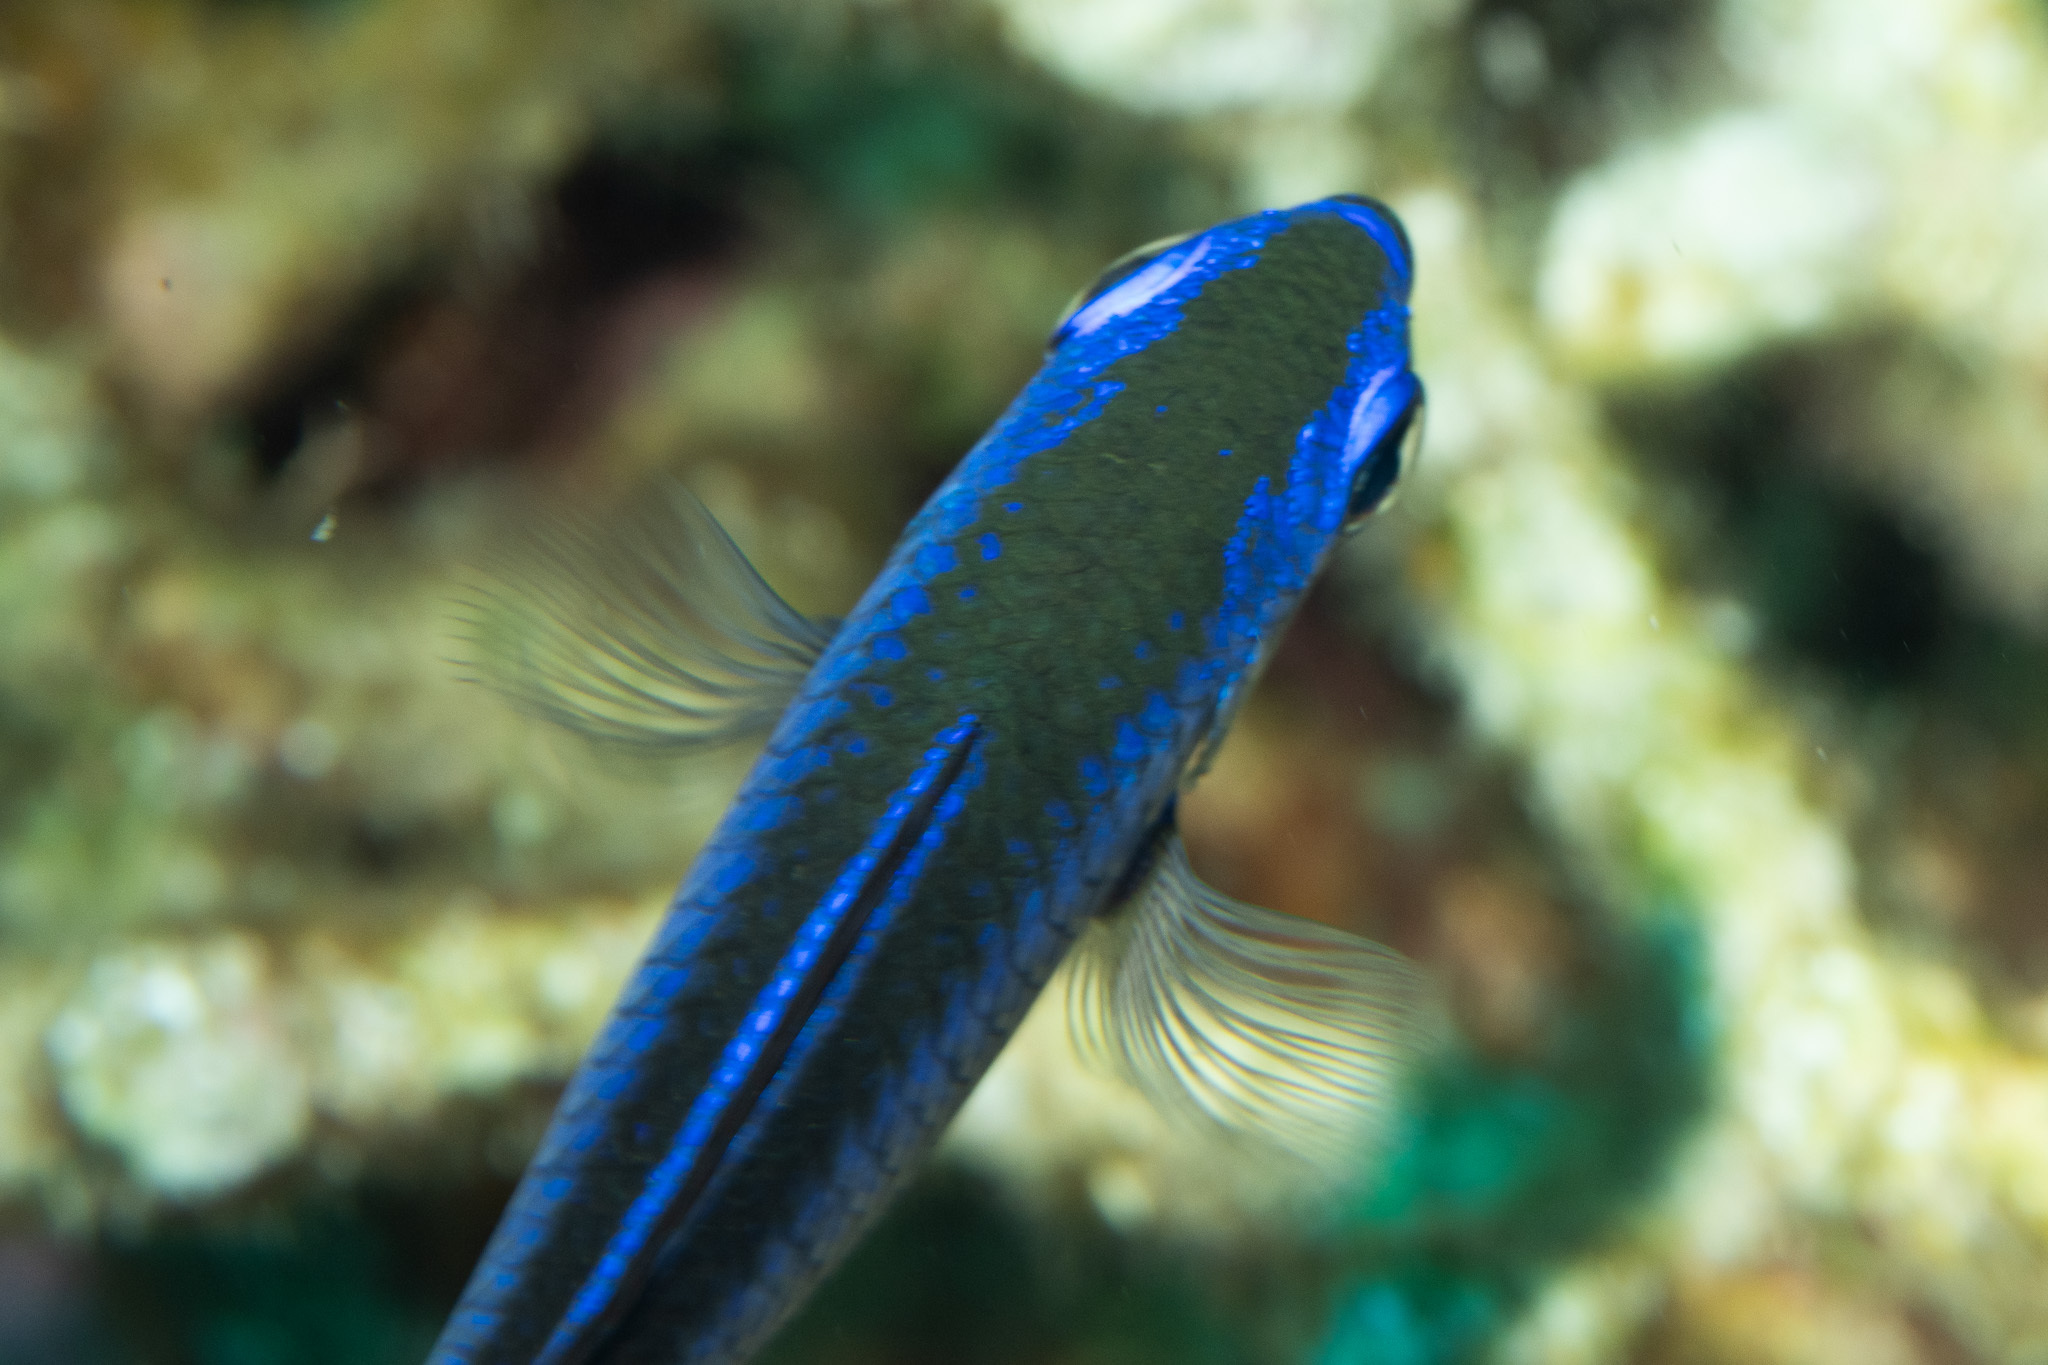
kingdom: Animalia
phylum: Chordata
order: Perciformes
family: Pomacentridae
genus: Chromis
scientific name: Chromis cyanea
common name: Blue chromis
